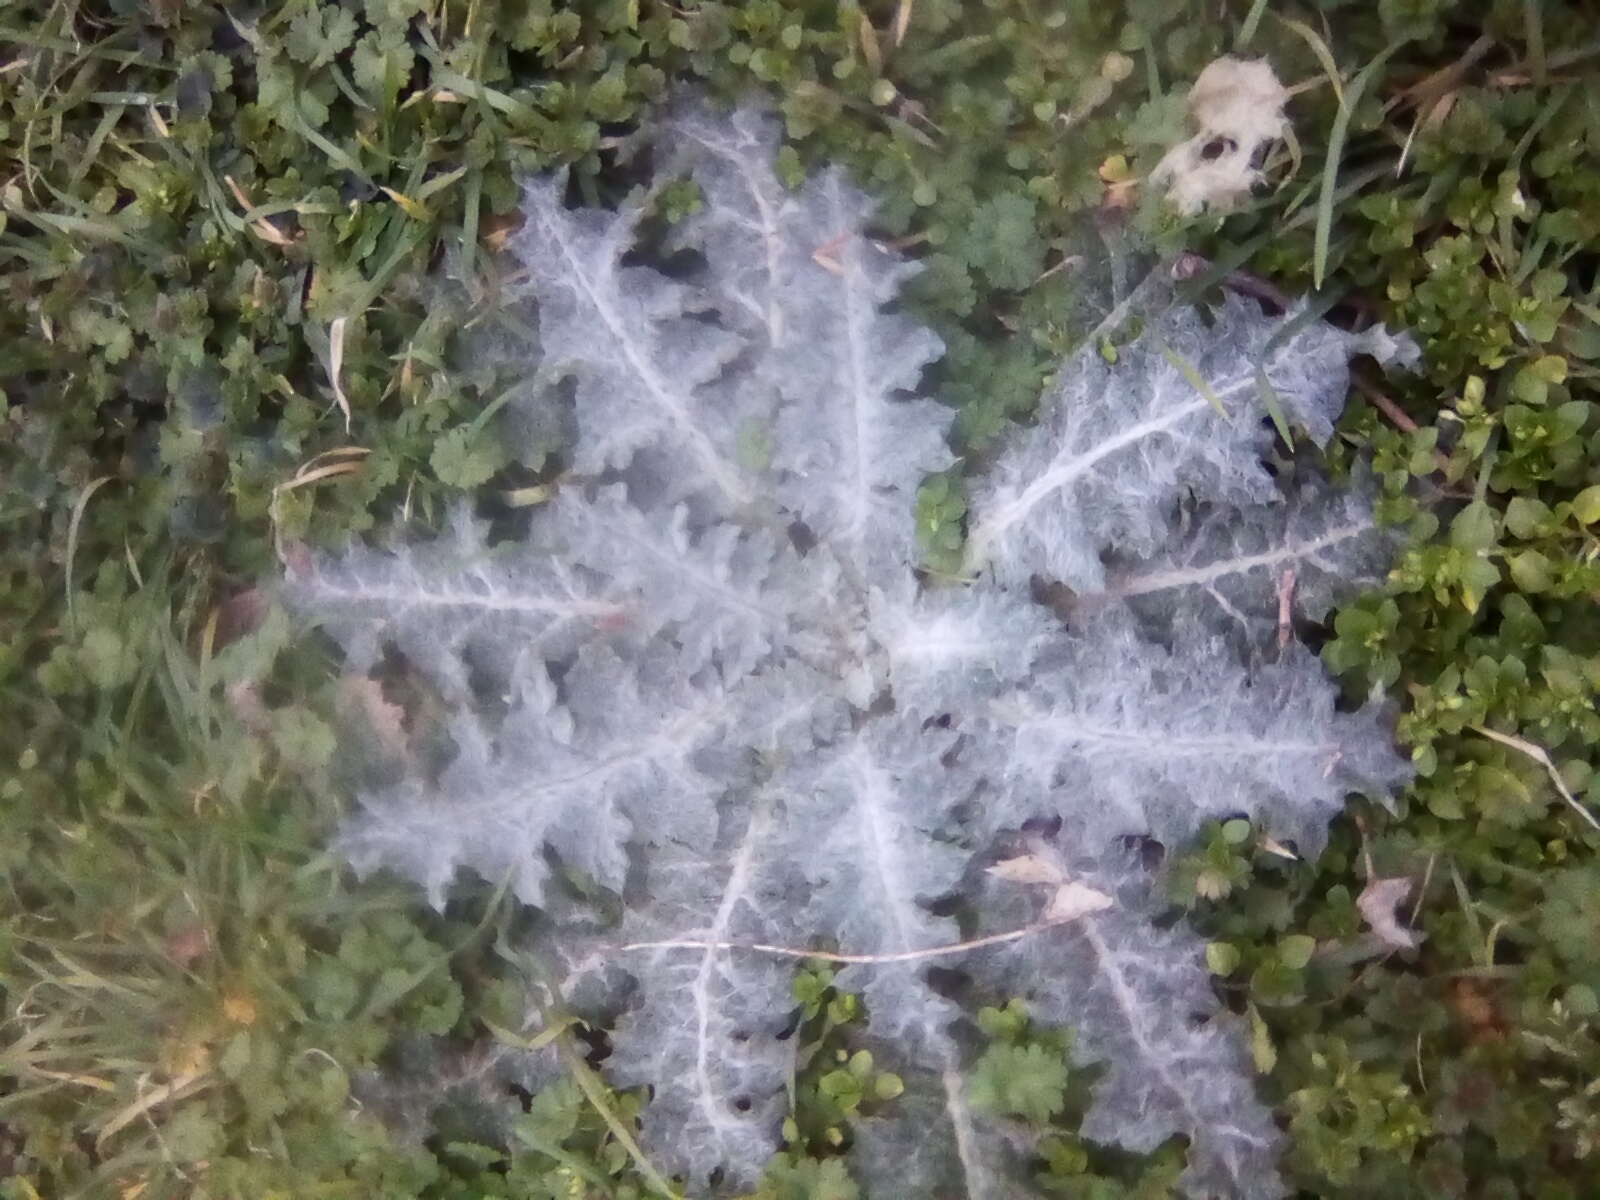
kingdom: Plantae
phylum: Tracheophyta
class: Magnoliopsida
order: Asterales
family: Asteraceae
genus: Onopordum
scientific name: Onopordum acanthium
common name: Scotch thistle
